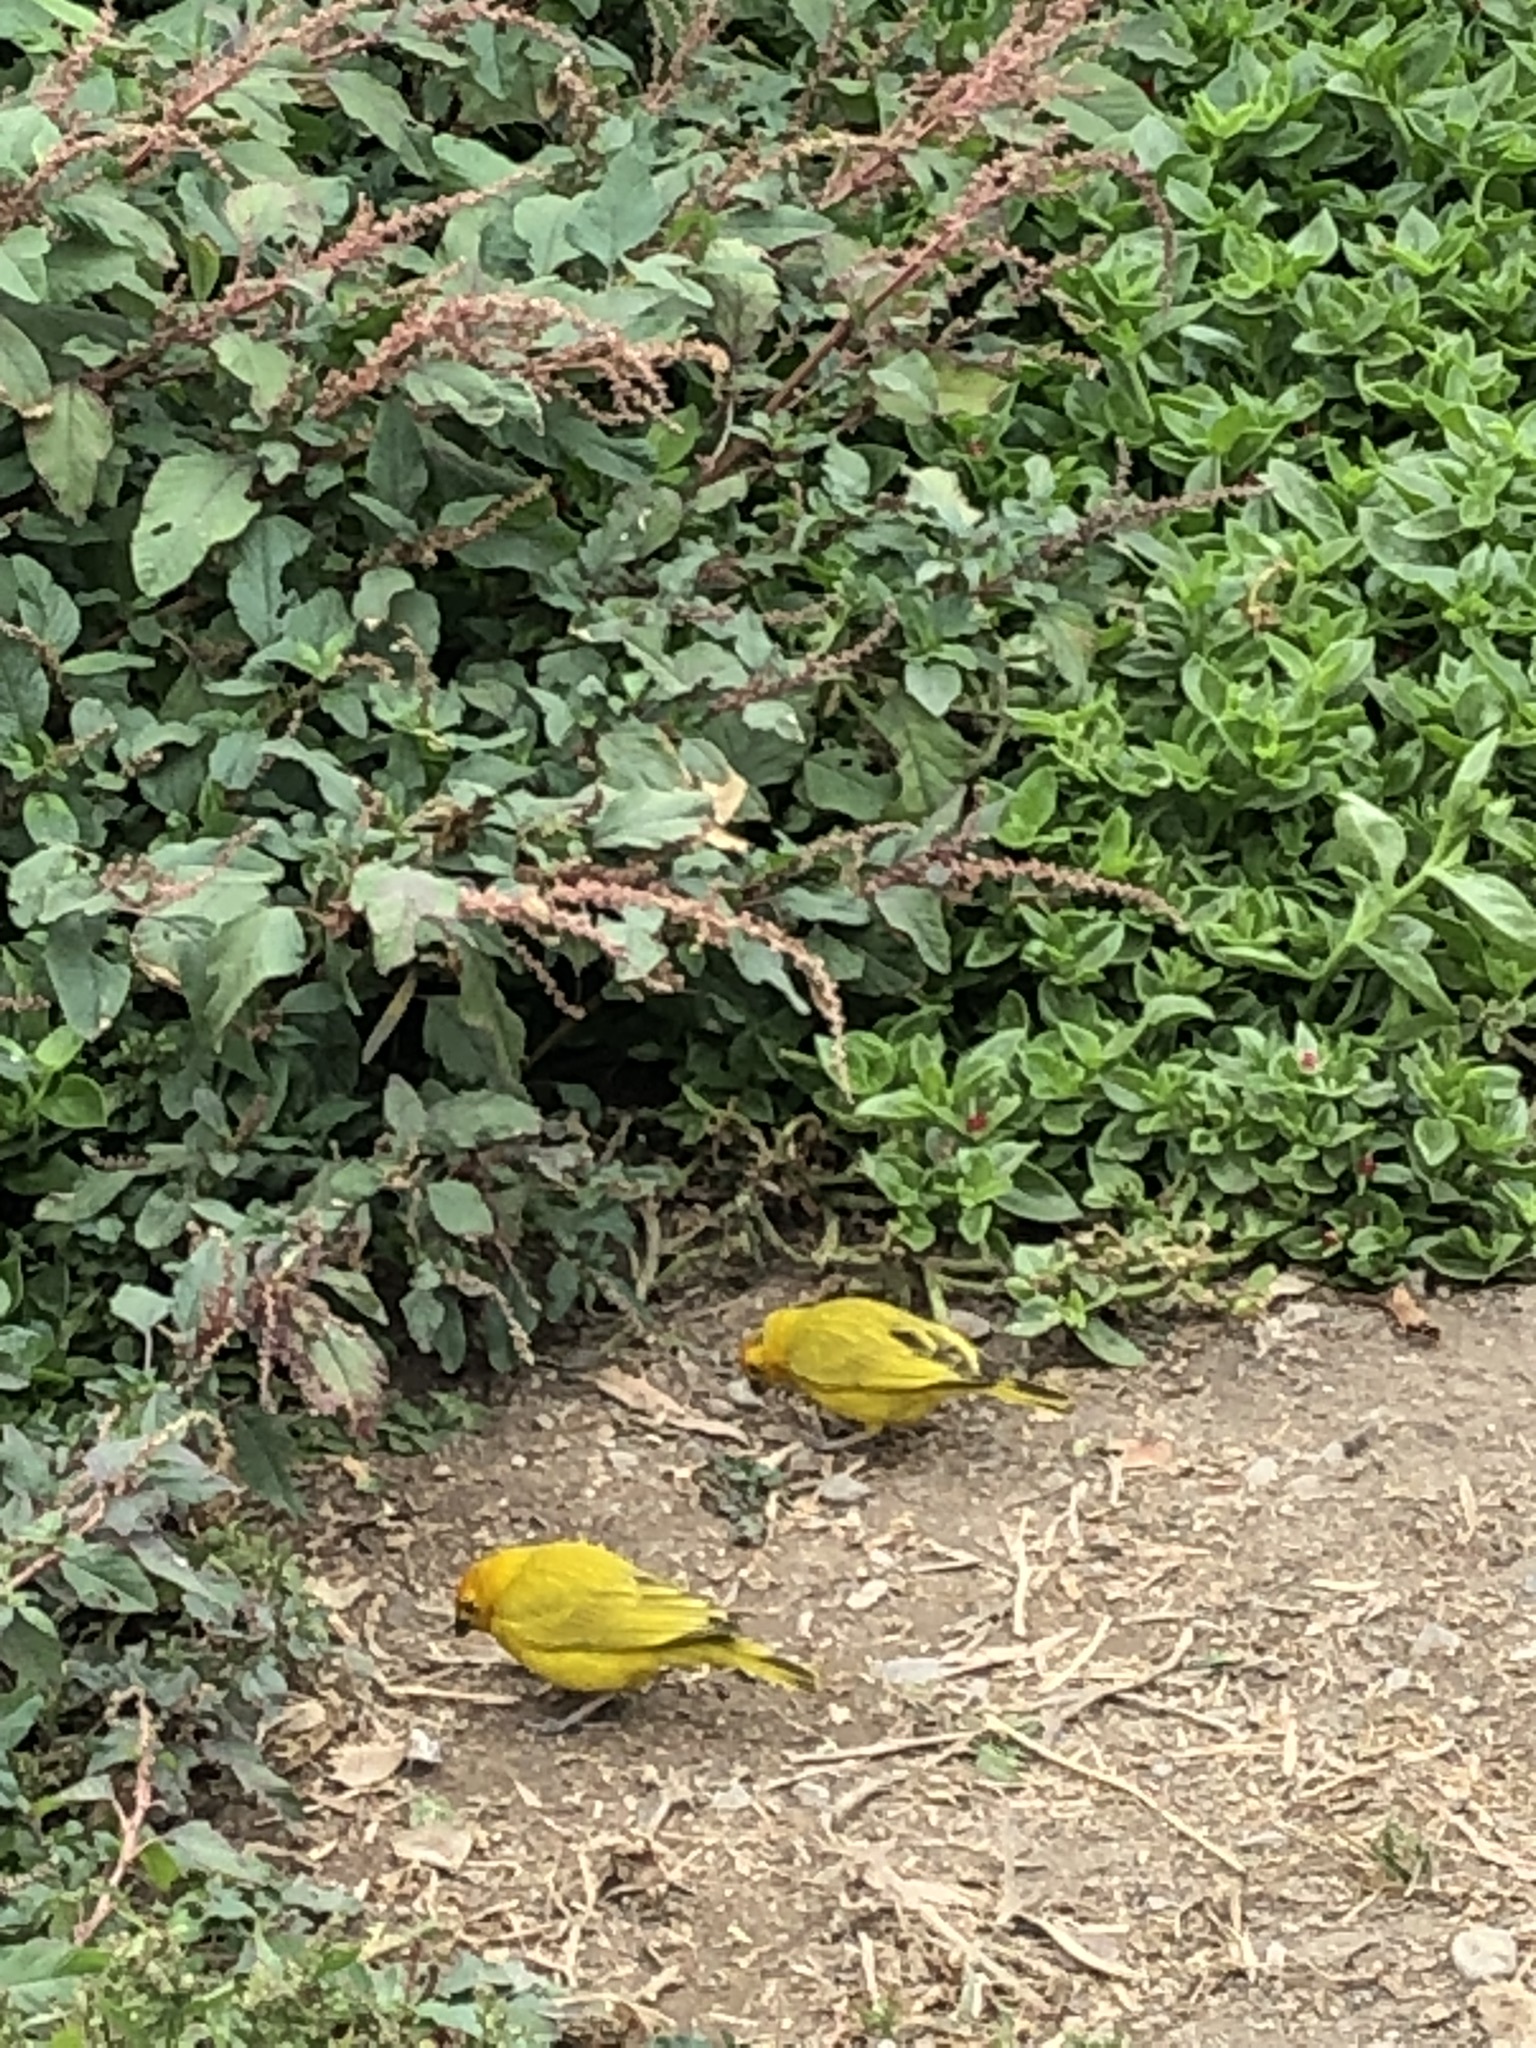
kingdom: Animalia
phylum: Chordata
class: Aves
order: Passeriformes
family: Thraupidae
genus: Sicalis
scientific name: Sicalis flaveola
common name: Saffron finch
